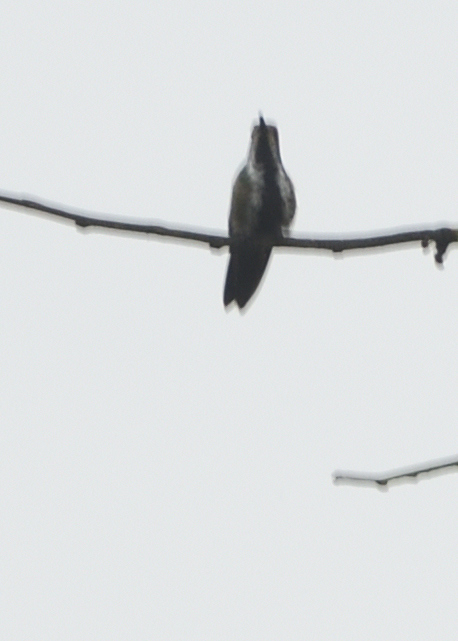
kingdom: Animalia
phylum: Chordata
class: Aves
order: Apodiformes
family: Trochilidae
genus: Anthracothorax
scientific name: Anthracothorax nigricollis
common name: Black-throated mango
